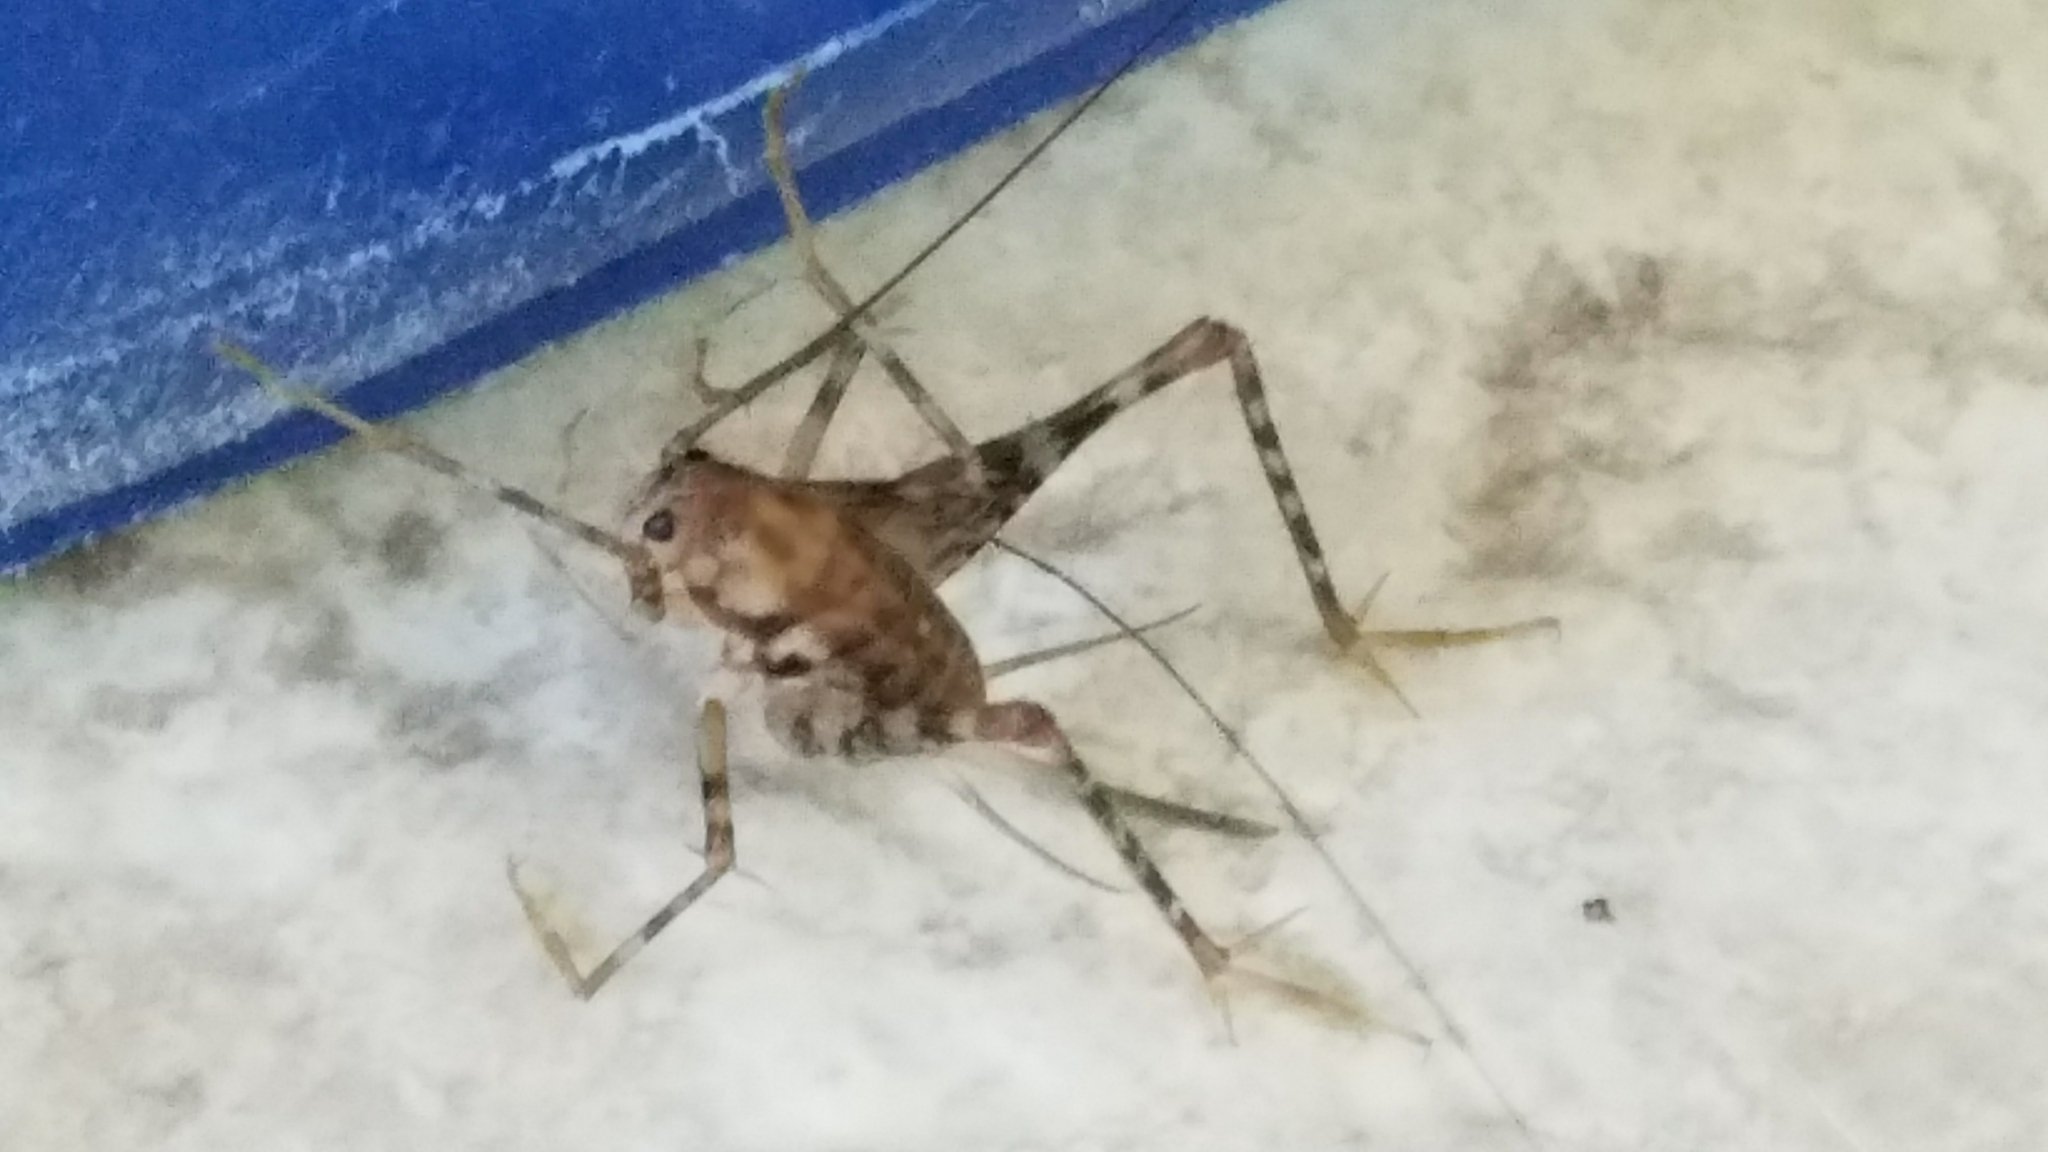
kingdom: Animalia
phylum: Arthropoda
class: Insecta
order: Orthoptera
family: Rhaphidophoridae
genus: Tachycines
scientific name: Tachycines asynamorus
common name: Greenhouse camel cricket
